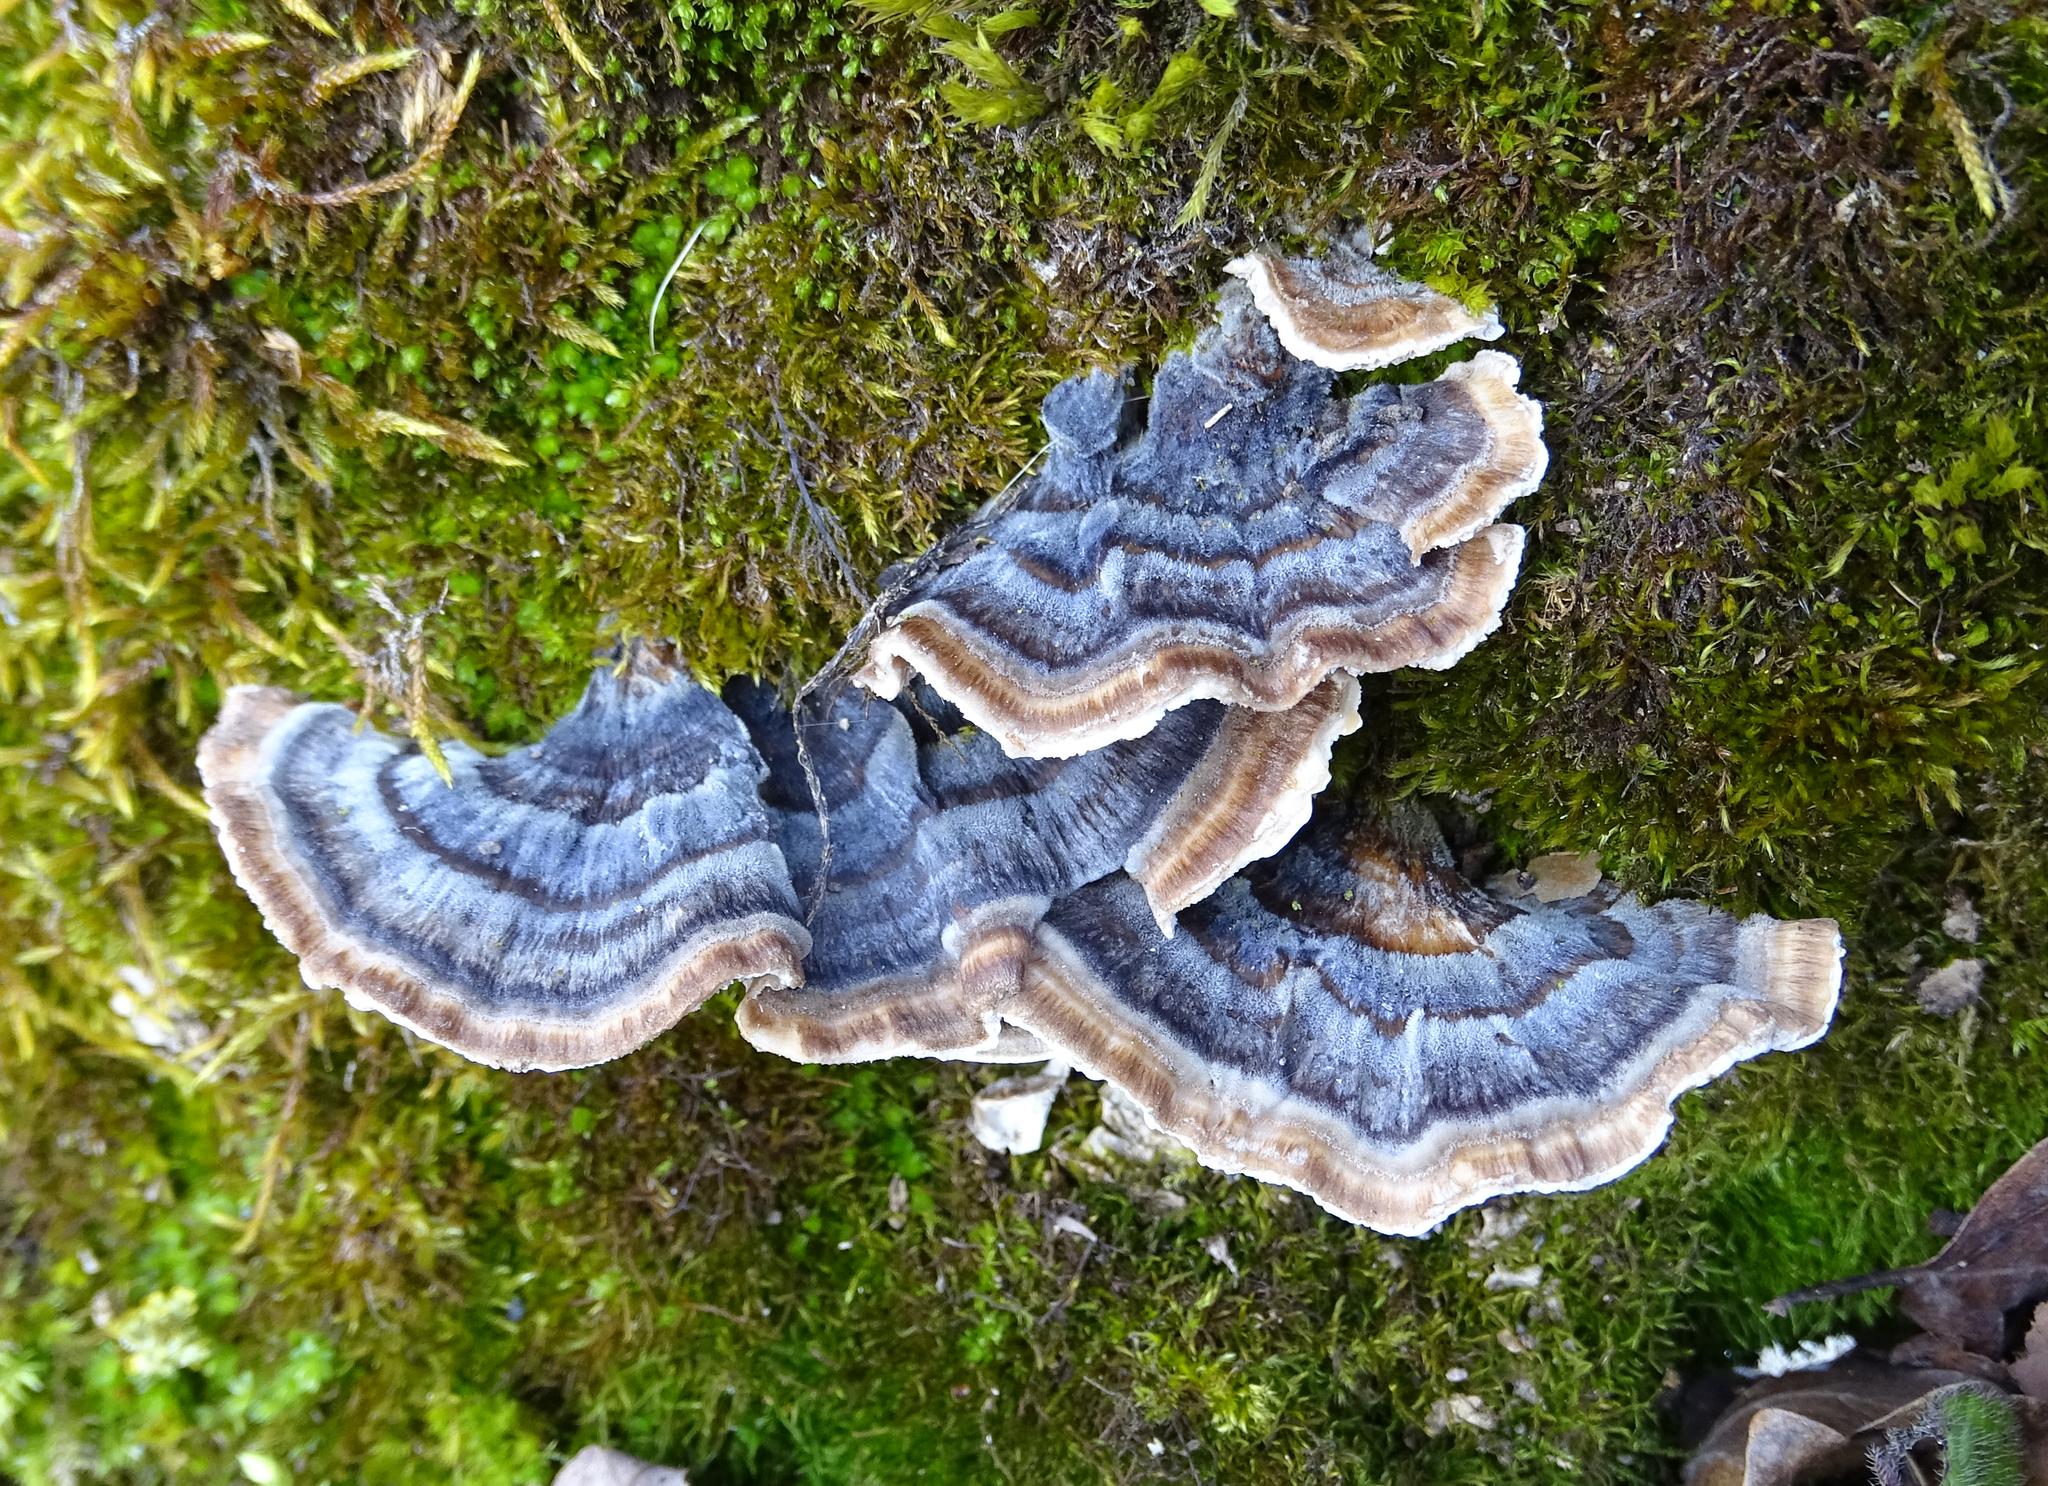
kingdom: Fungi
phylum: Basidiomycota
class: Agaricomycetes
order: Polyporales
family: Polyporaceae
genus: Trametes
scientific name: Trametes versicolor
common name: Turkeytail
